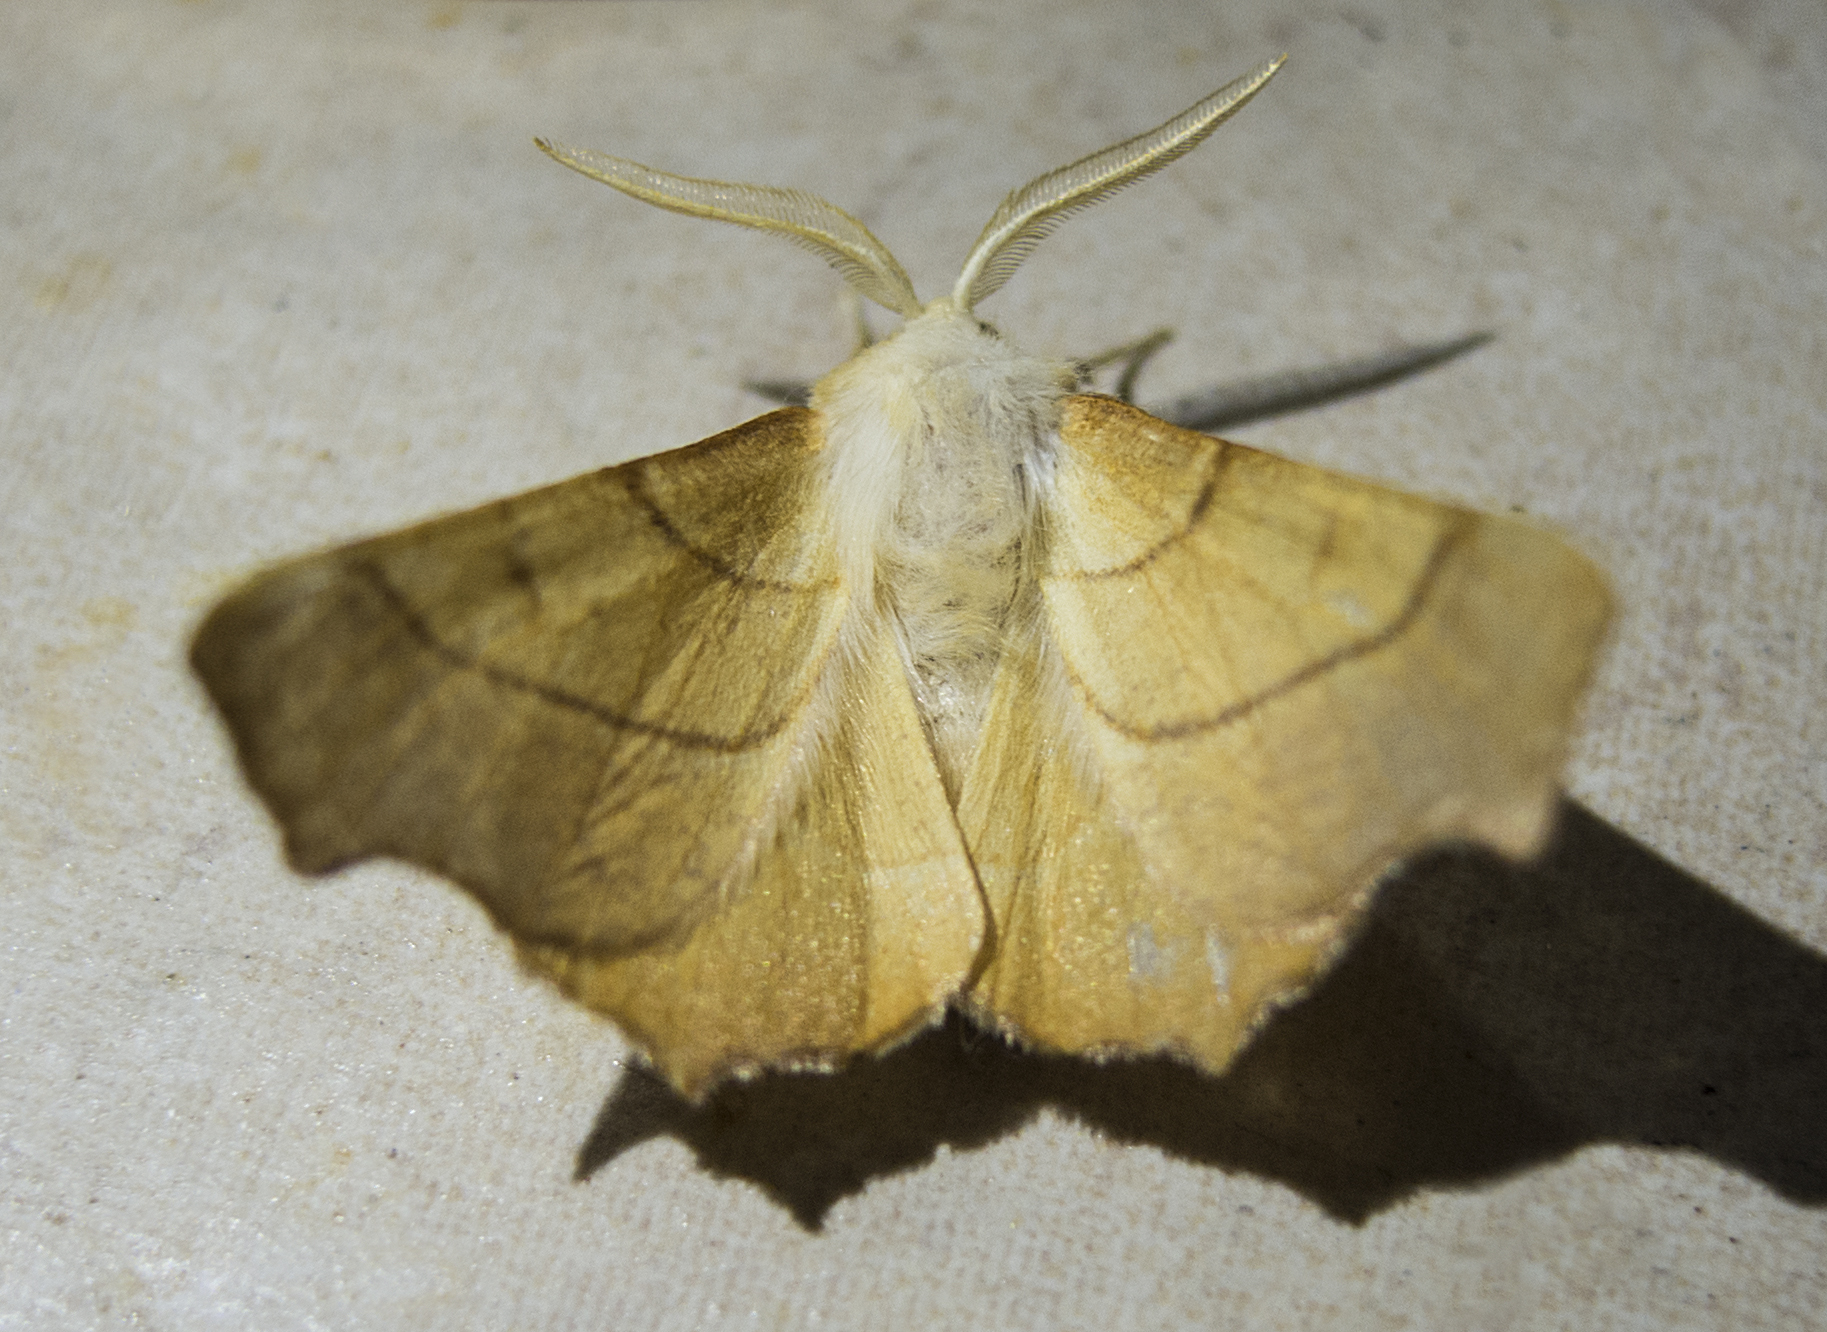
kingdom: Animalia
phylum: Arthropoda
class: Insecta
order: Lepidoptera
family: Geometridae
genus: Ennomos
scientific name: Ennomos fuscantaria
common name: Dusky thorn
